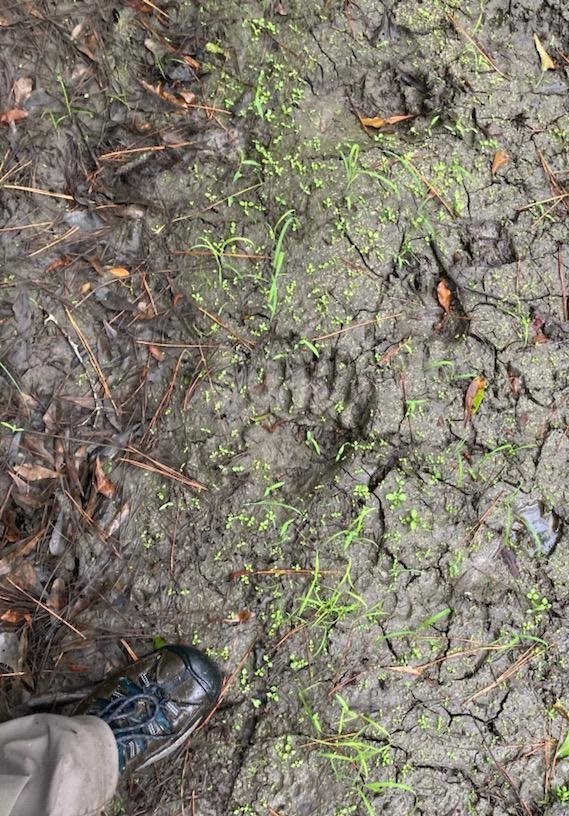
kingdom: Animalia
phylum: Chordata
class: Mammalia
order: Carnivora
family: Ursidae
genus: Ursus
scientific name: Ursus americanus
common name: American black bear
